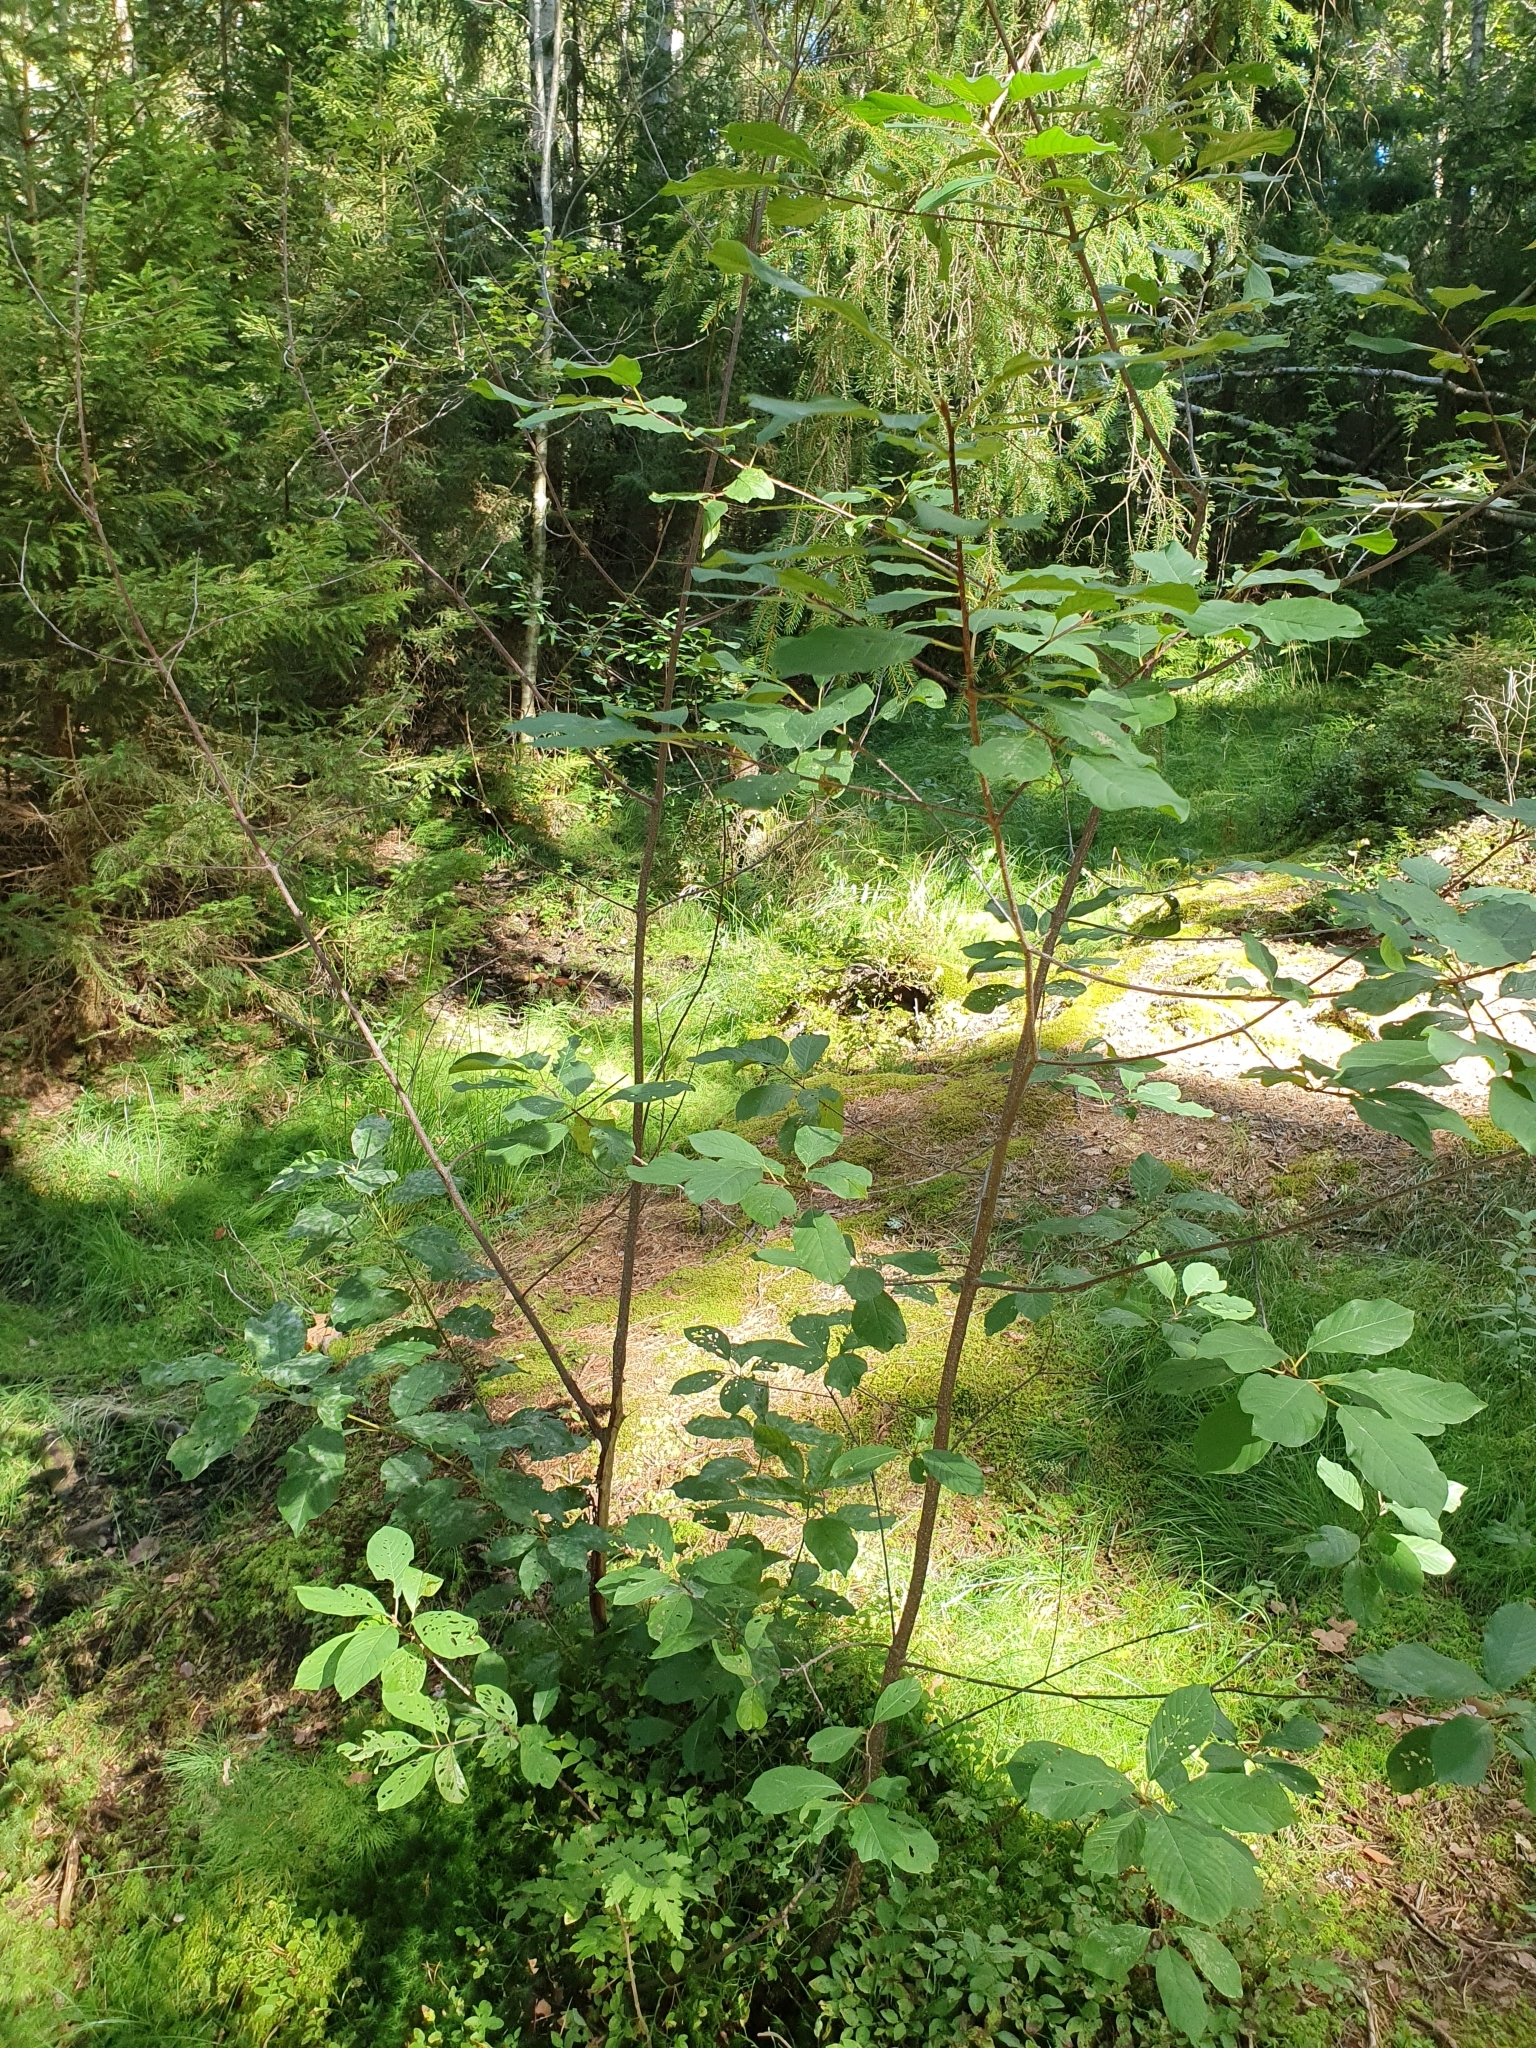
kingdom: Plantae
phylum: Tracheophyta
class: Magnoliopsida
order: Rosales
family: Rhamnaceae
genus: Frangula
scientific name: Frangula alnus
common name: Alder buckthorn
